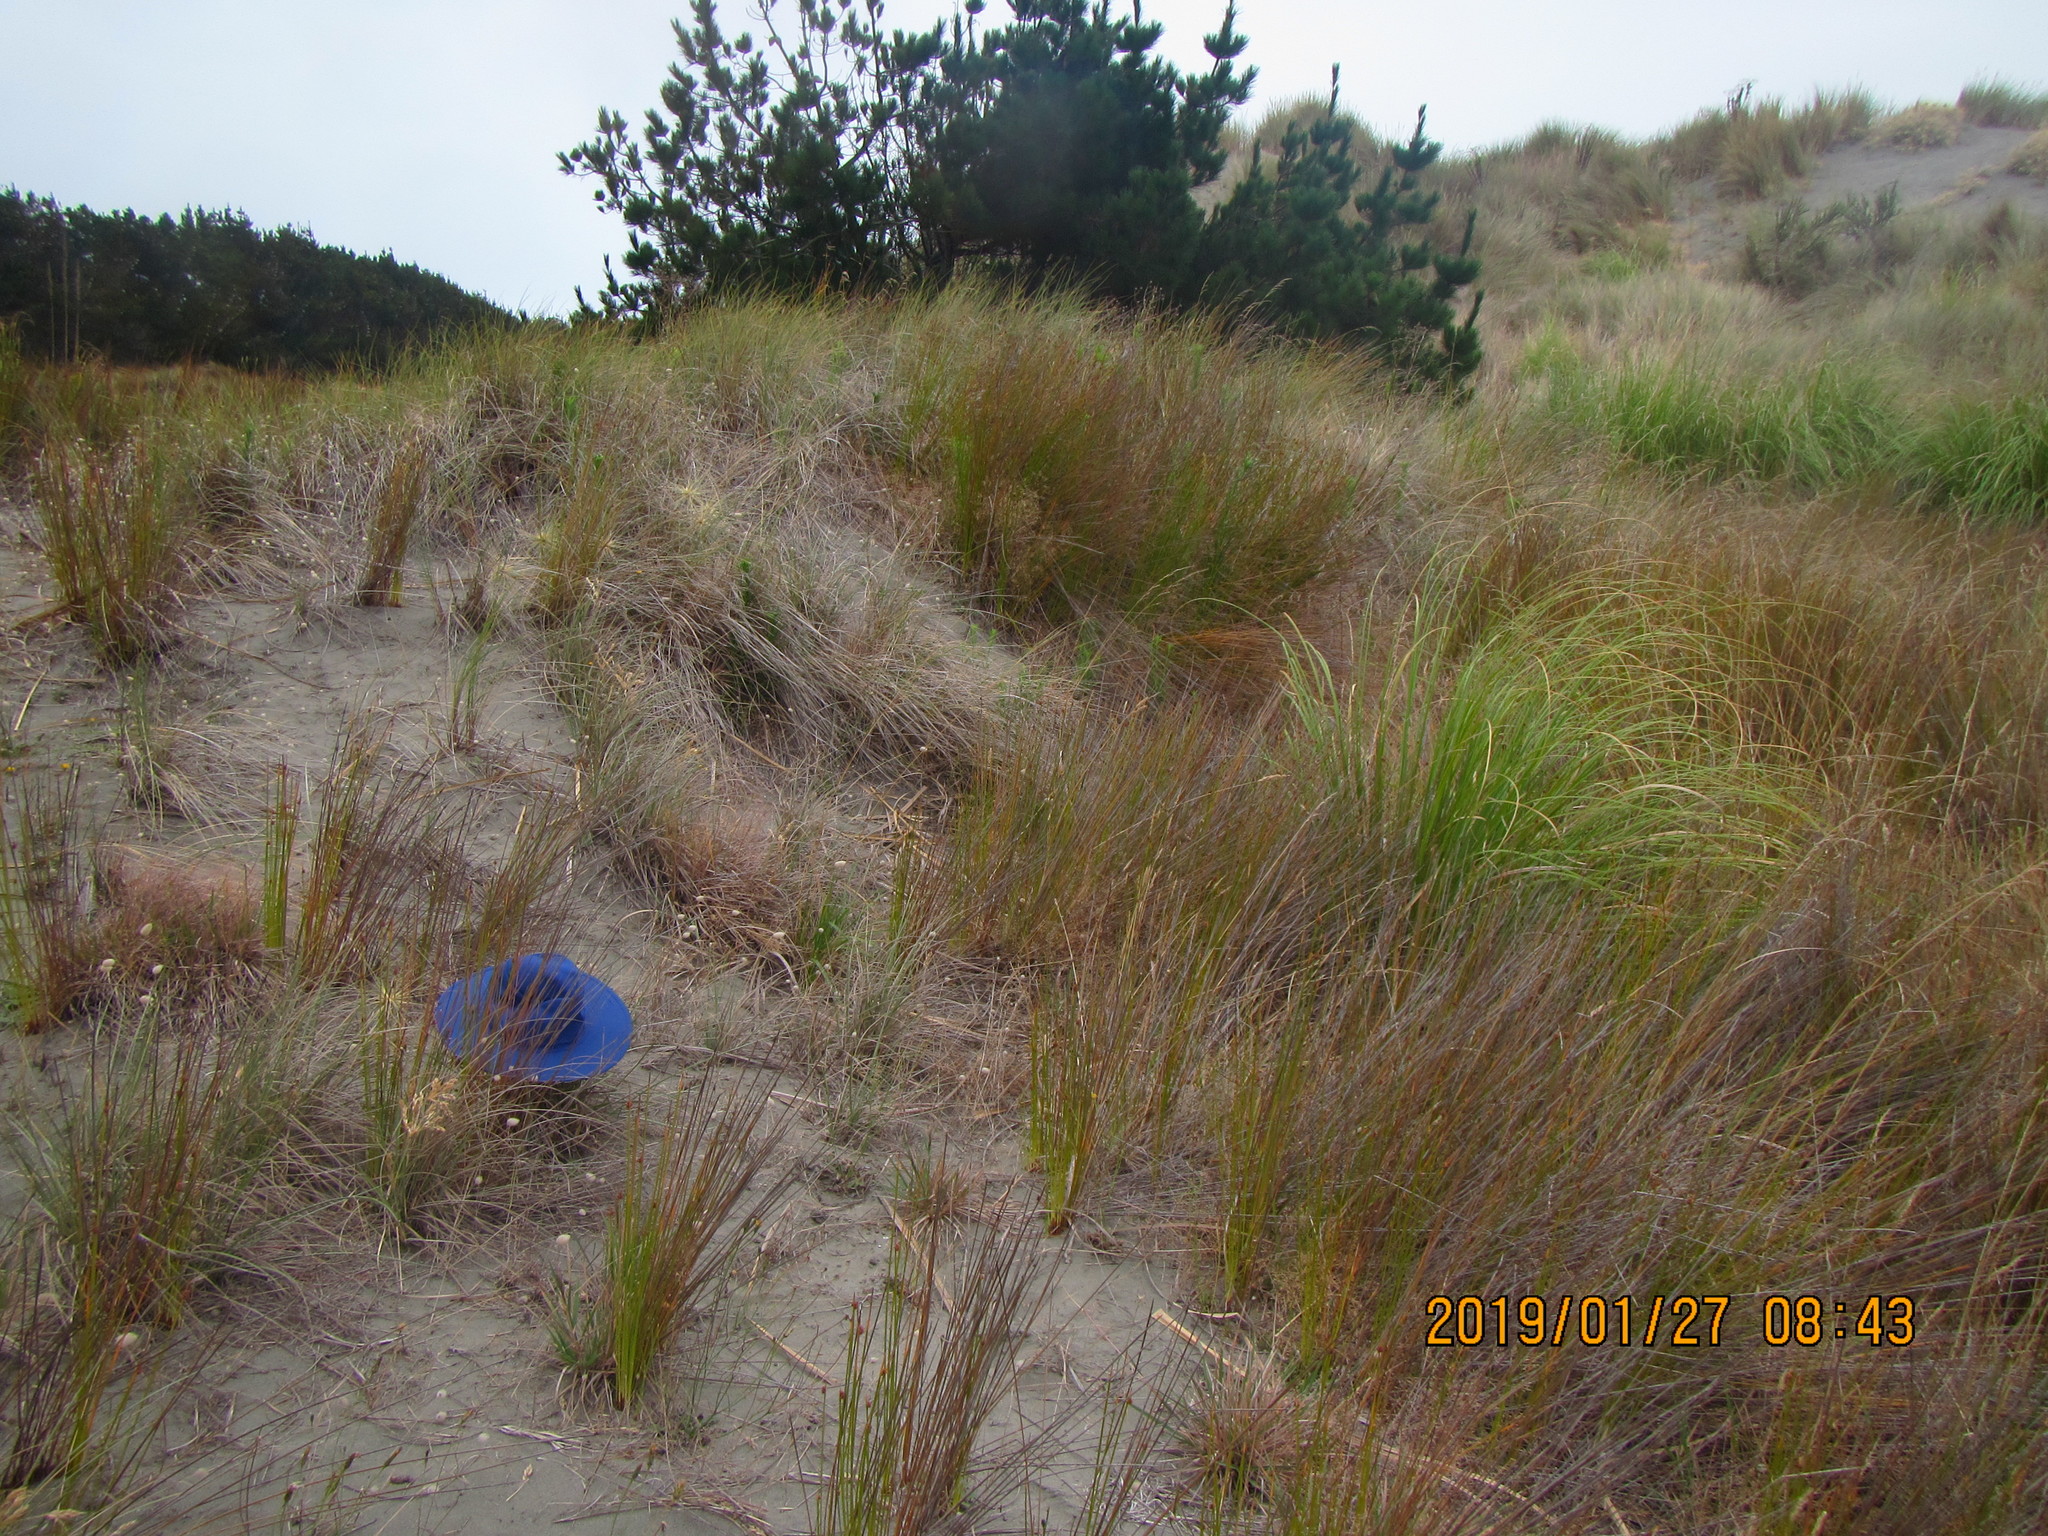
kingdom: Animalia
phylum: Arthropoda
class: Arachnida
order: Araneae
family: Theridiidae
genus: Latrodectus
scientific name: Latrodectus katipo
